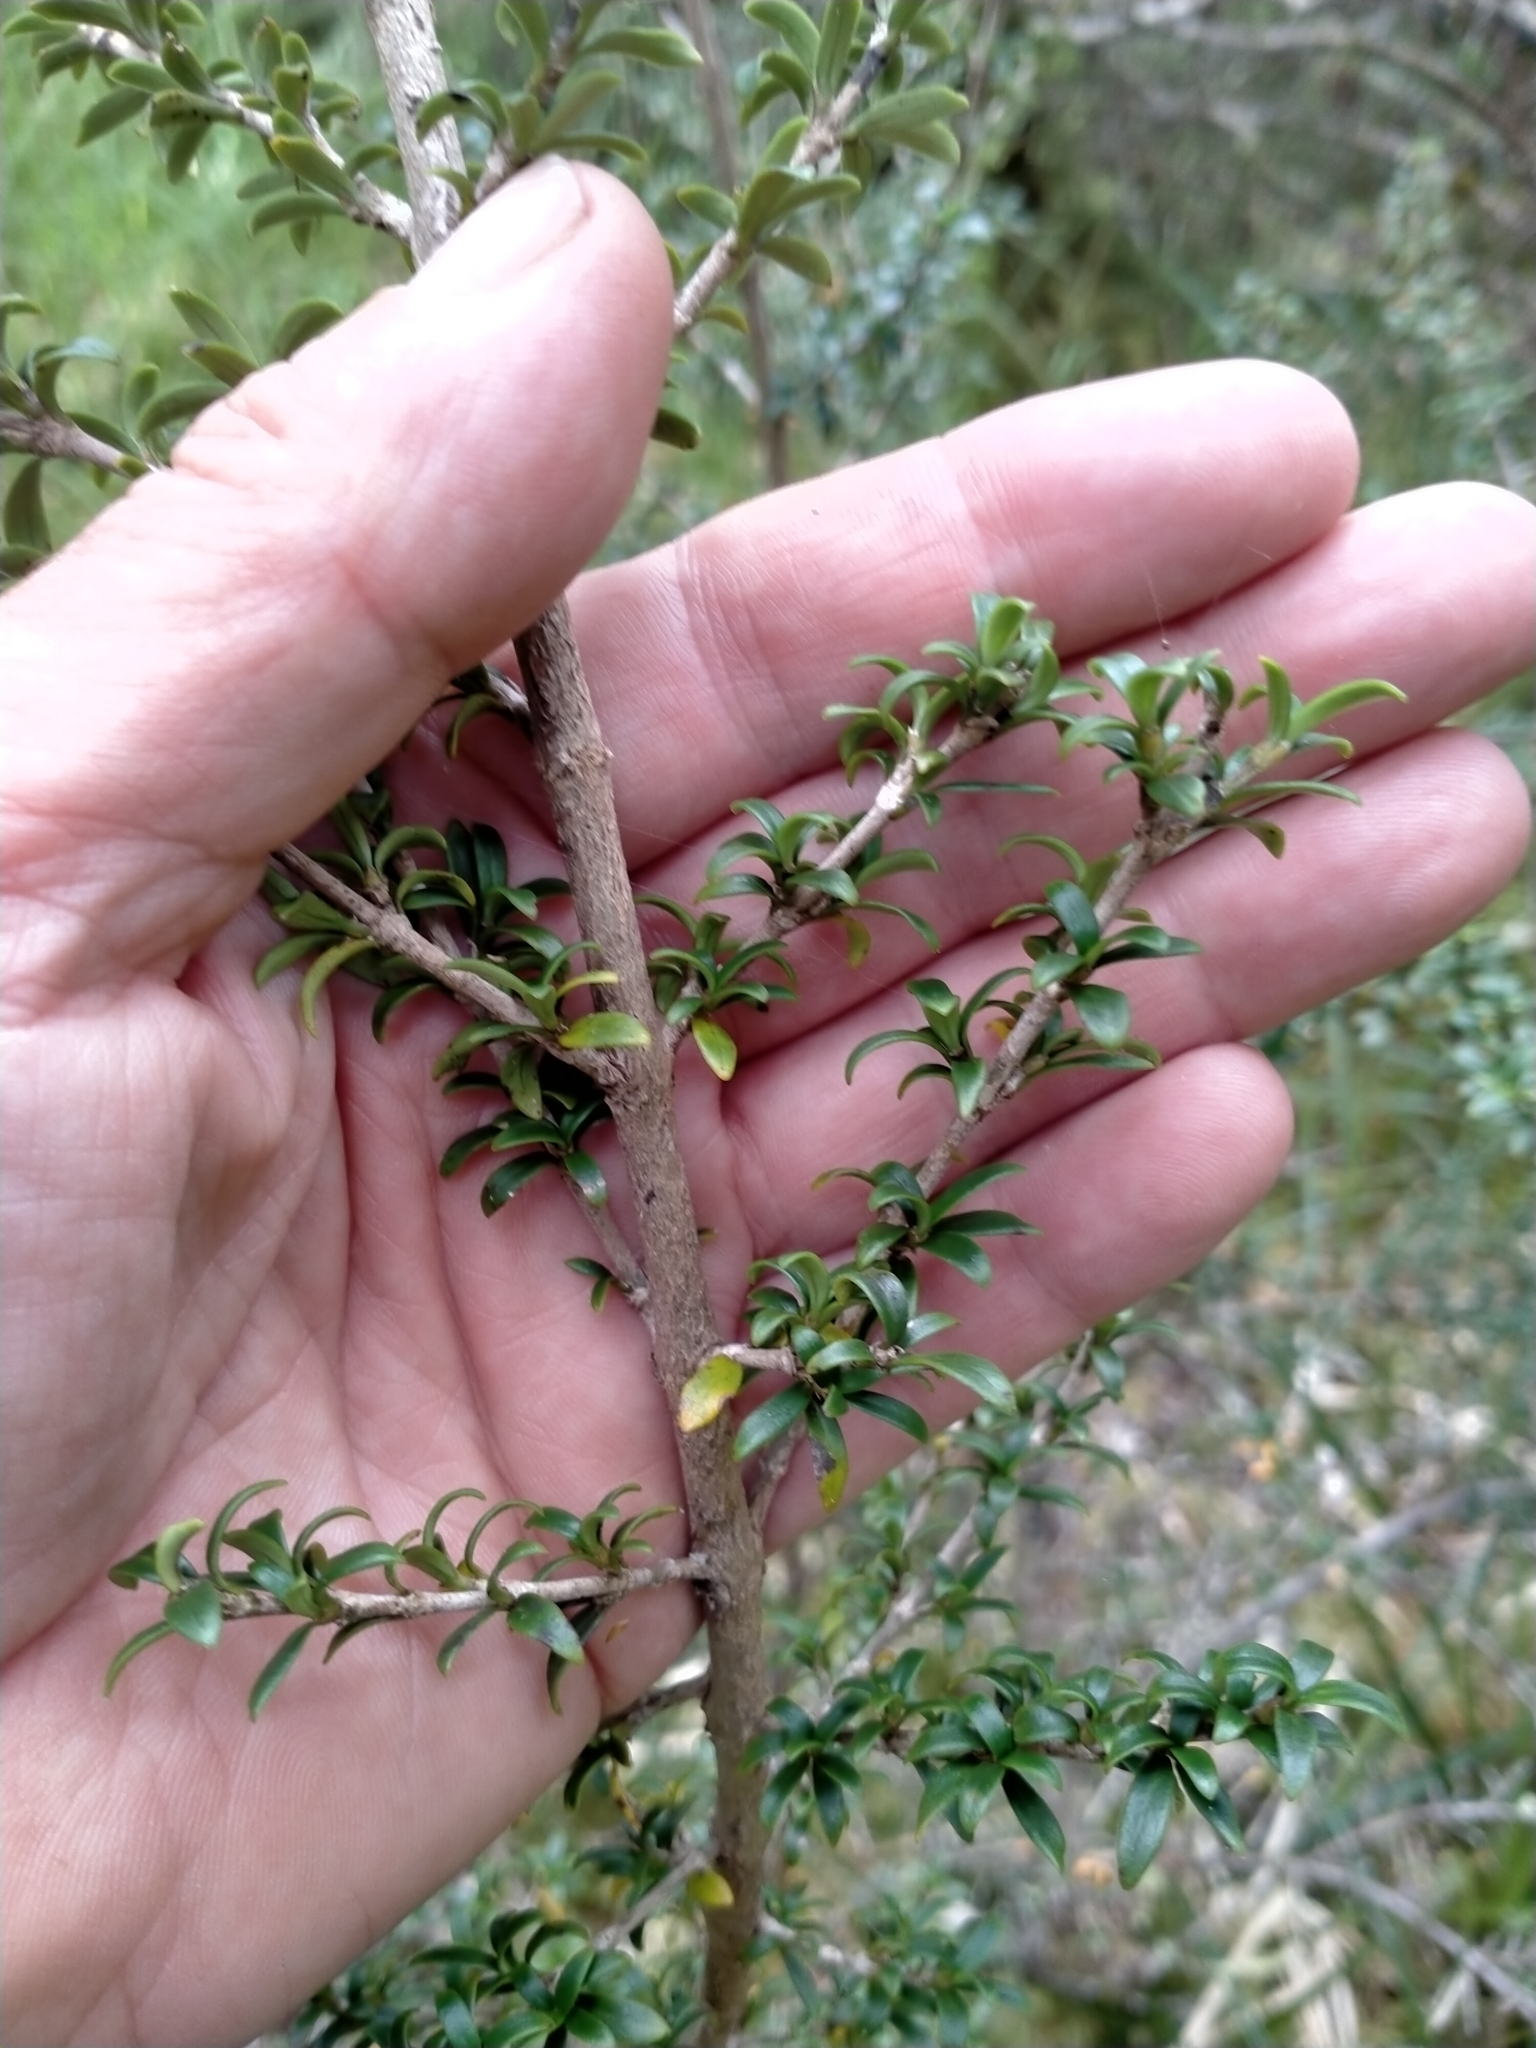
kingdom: Plantae
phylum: Tracheophyta
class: Magnoliopsida
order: Gentianales
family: Rubiaceae
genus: Coprosma
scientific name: Coprosma pseudocuneata
